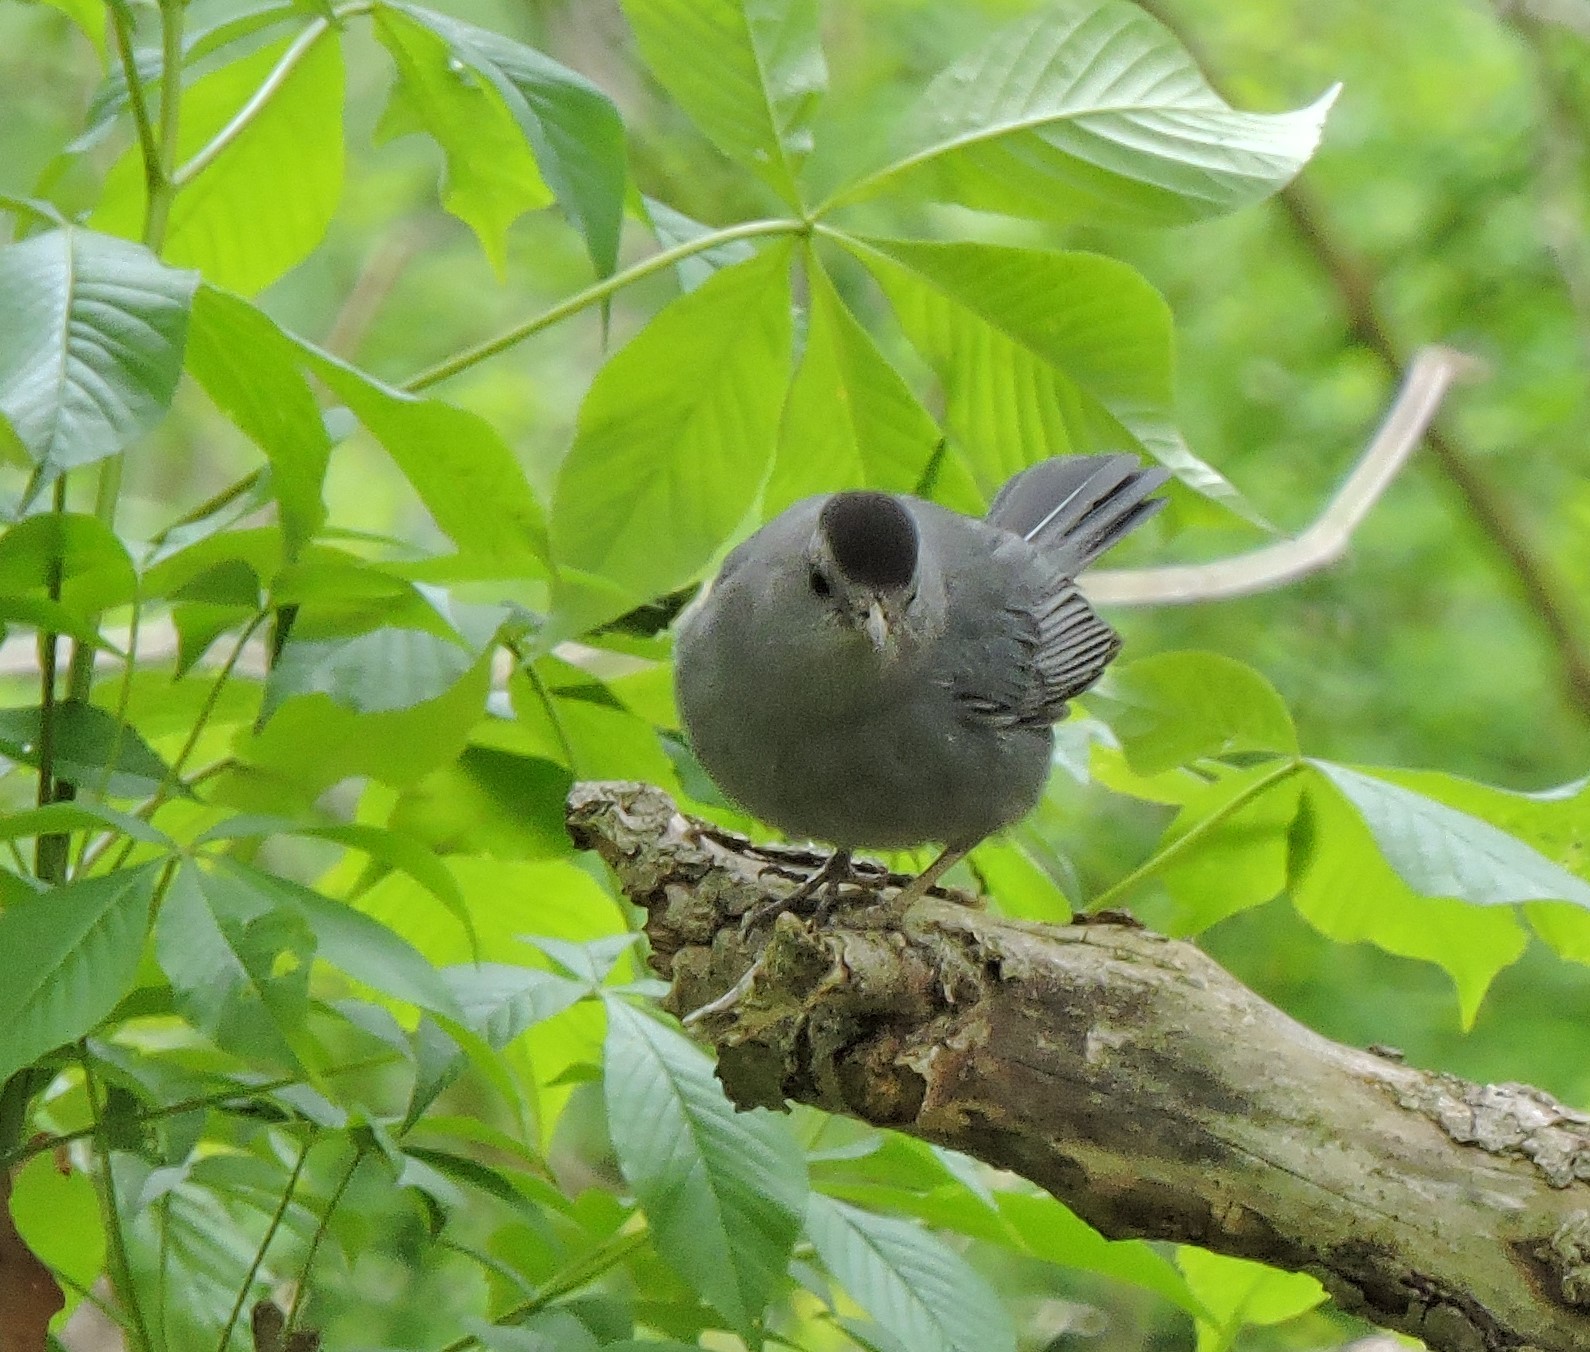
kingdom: Animalia
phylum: Chordata
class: Aves
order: Passeriformes
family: Mimidae
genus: Dumetella
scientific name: Dumetella carolinensis
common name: Gray catbird
